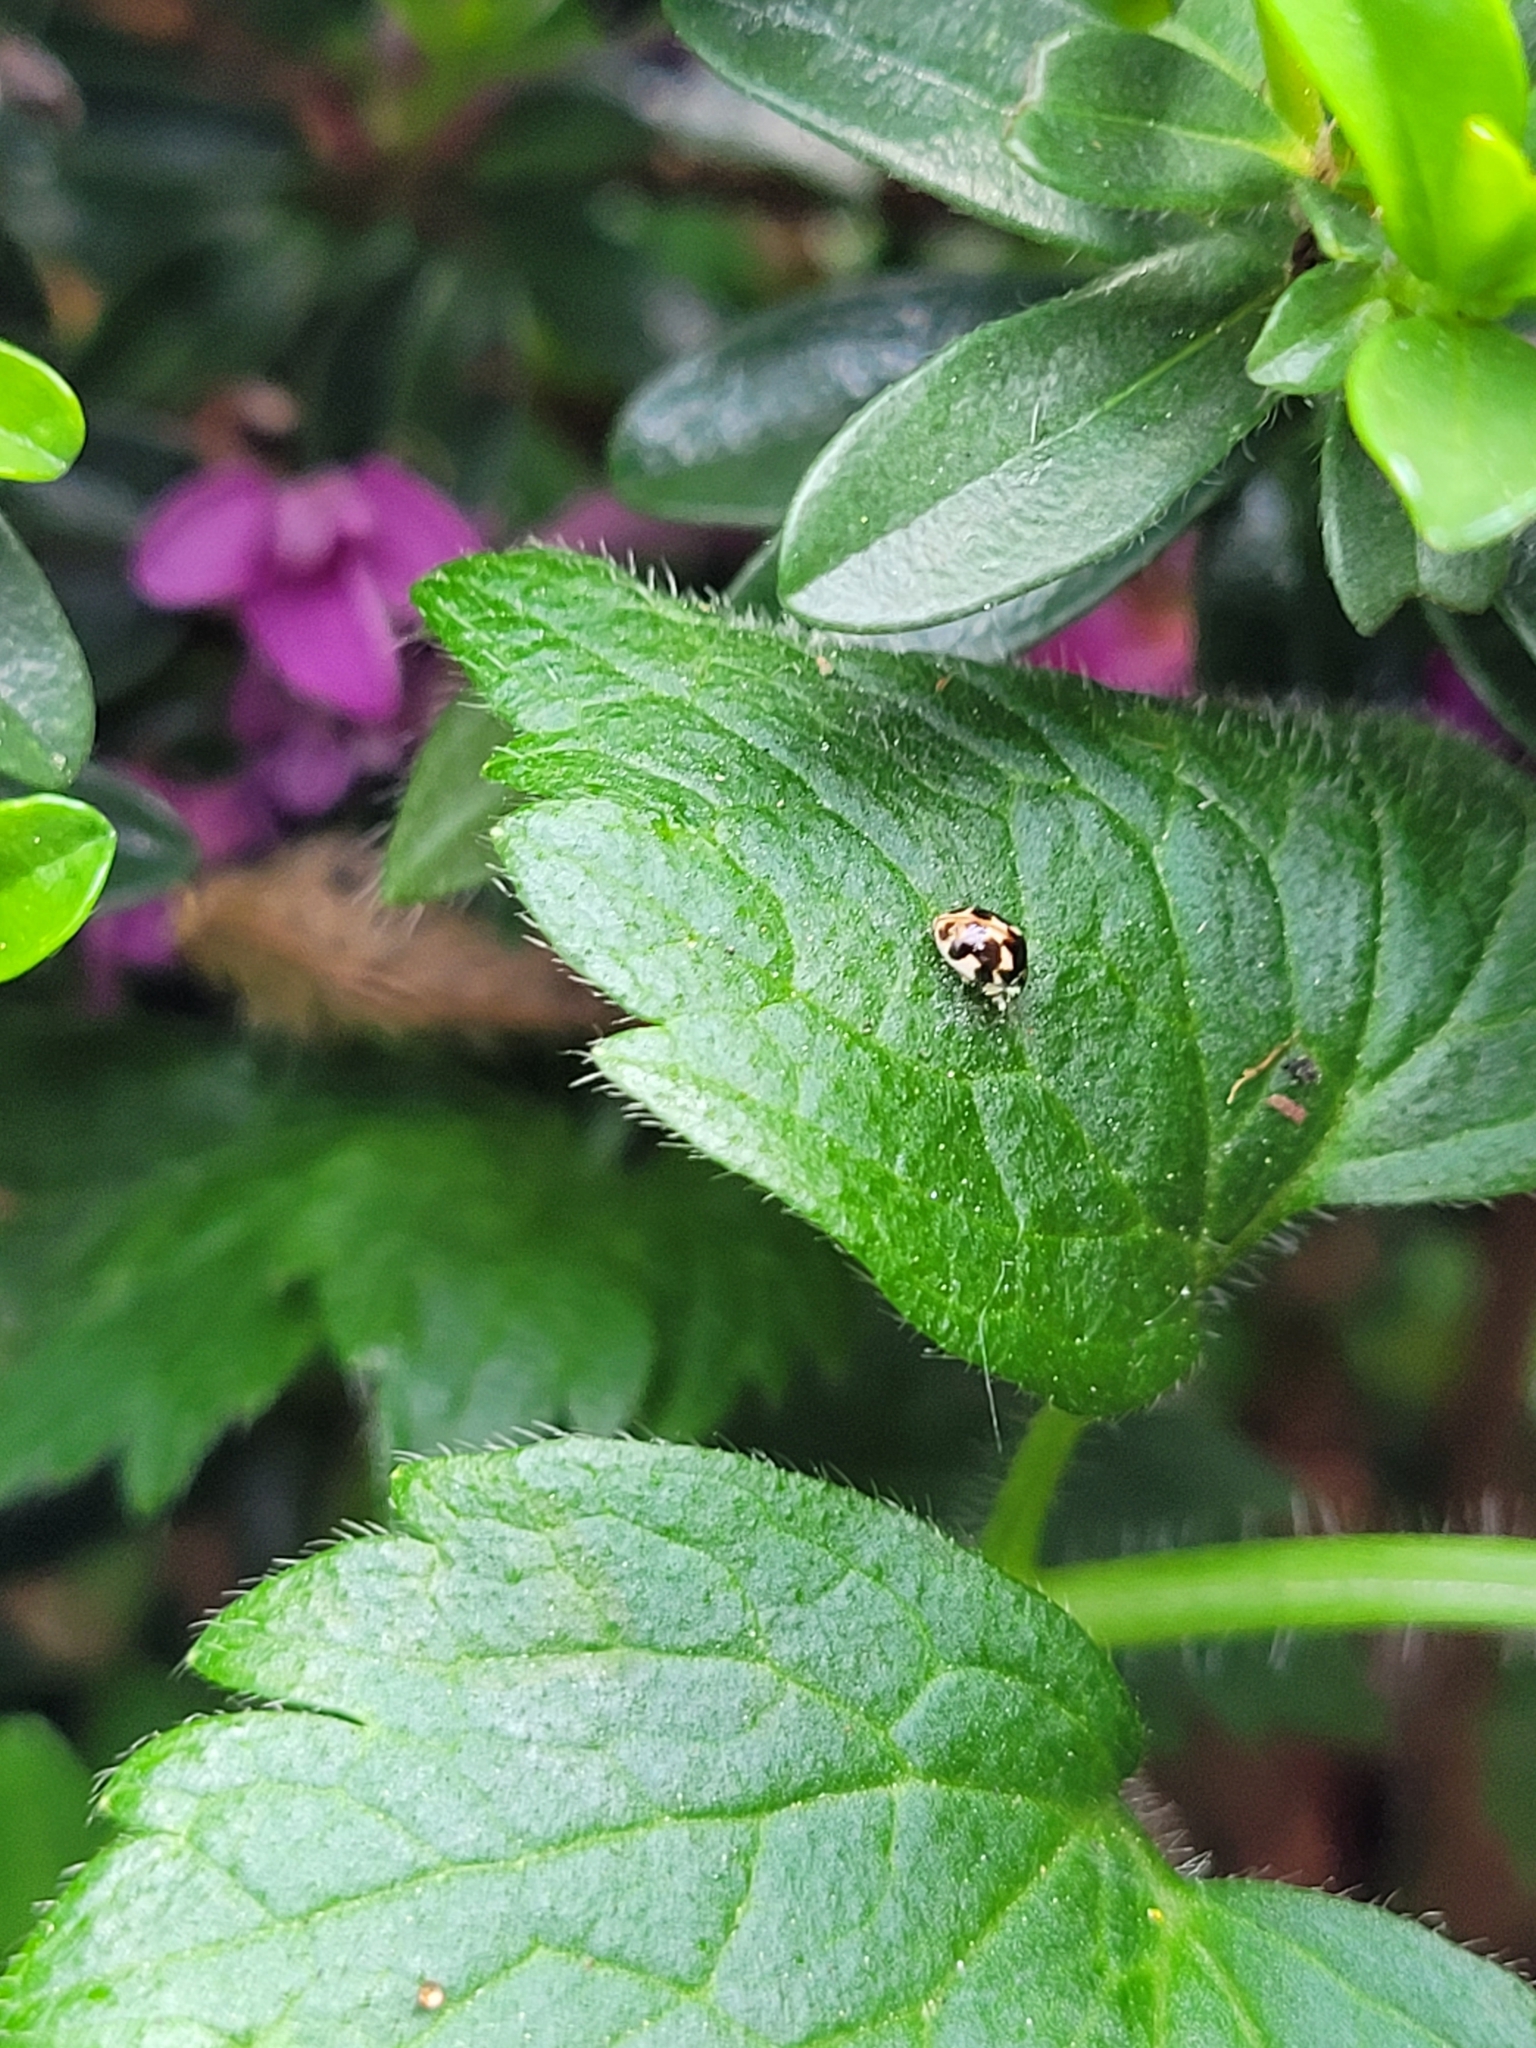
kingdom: Animalia
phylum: Arthropoda
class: Insecta
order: Coleoptera
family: Coccinellidae
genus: Psyllobora
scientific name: Psyllobora vigintimaculata
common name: Ladybird beetle
